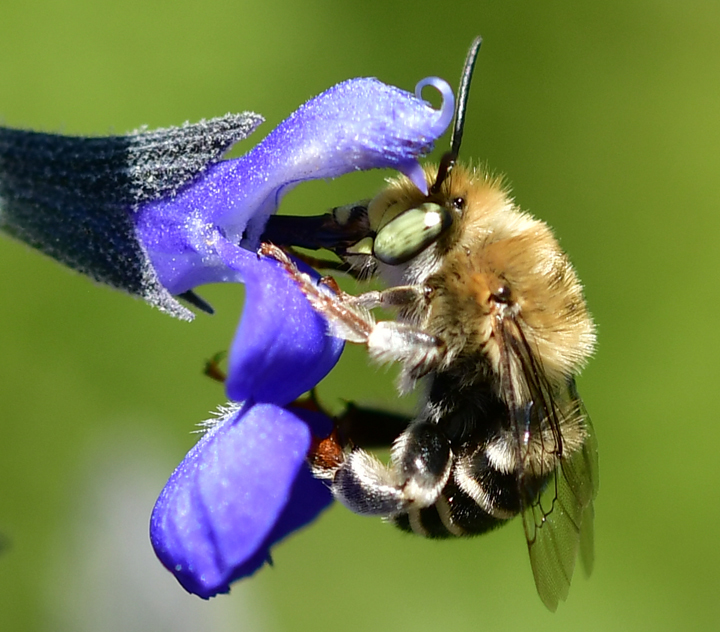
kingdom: Animalia
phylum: Arthropoda
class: Insecta
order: Hymenoptera
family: Apidae
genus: Anthophora
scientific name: Anthophora californica
